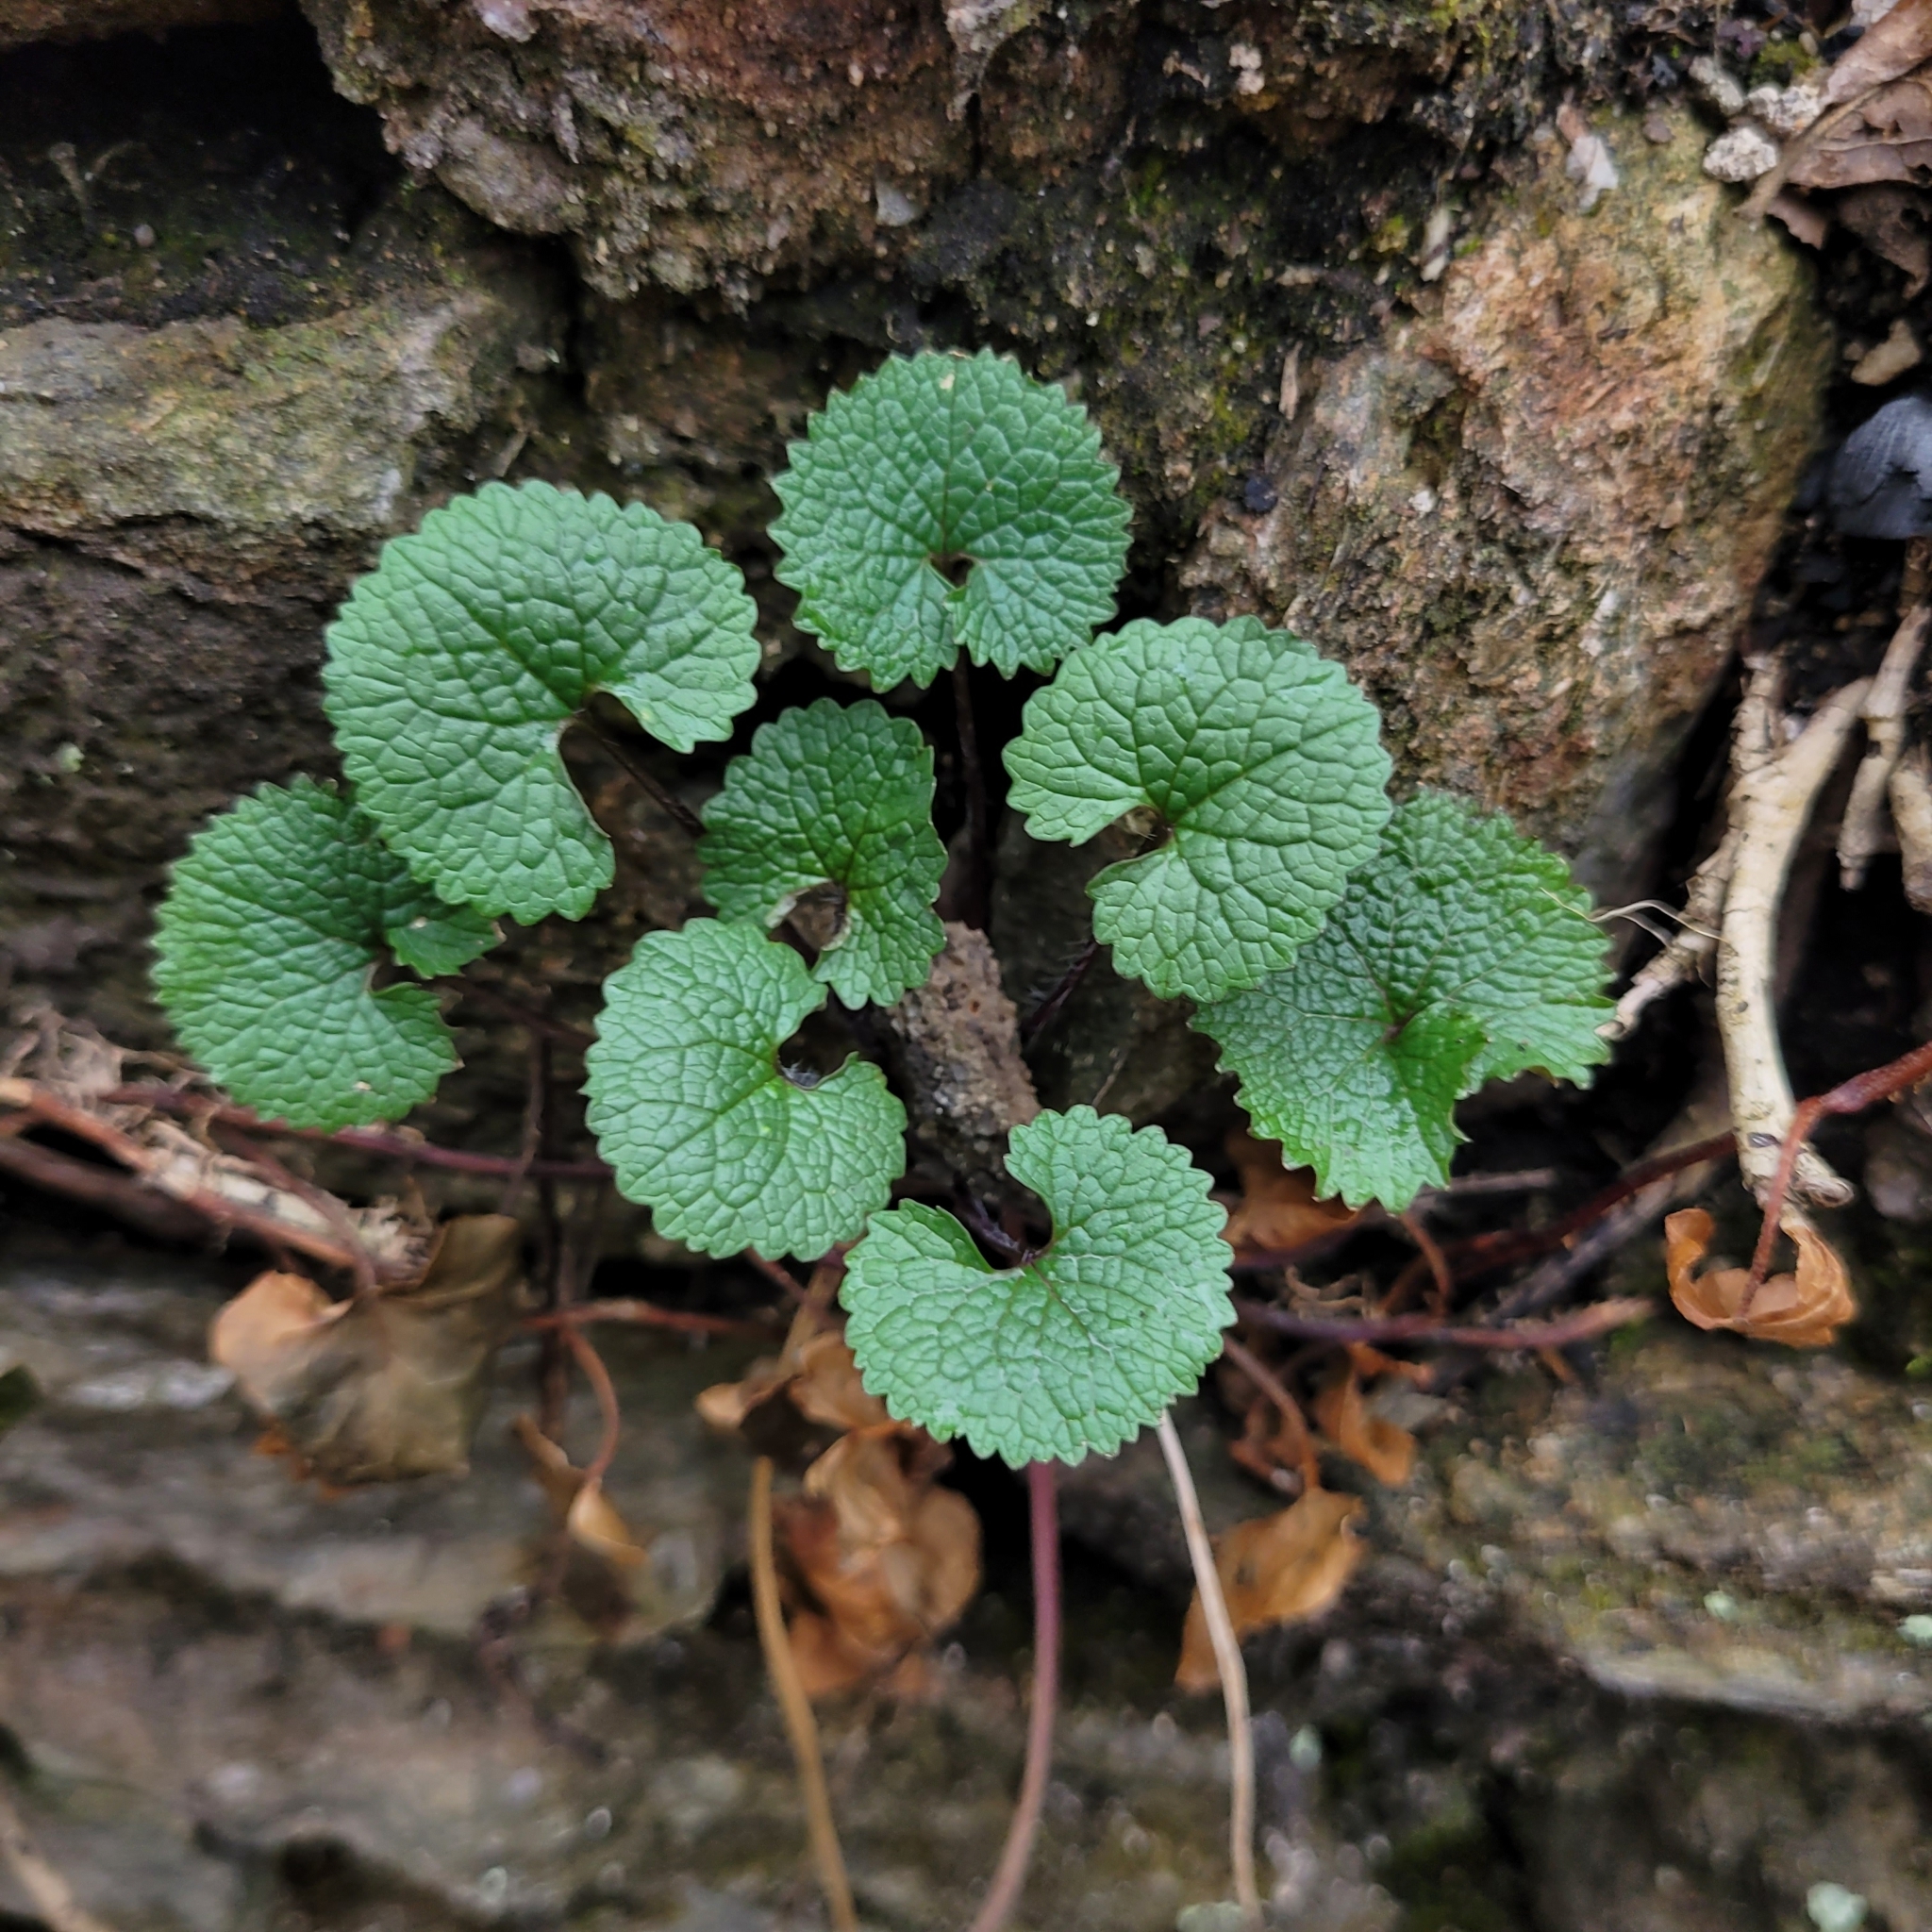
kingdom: Plantae
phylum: Tracheophyta
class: Magnoliopsida
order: Brassicales
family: Brassicaceae
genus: Alliaria
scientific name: Alliaria petiolata
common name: Garlic mustard
